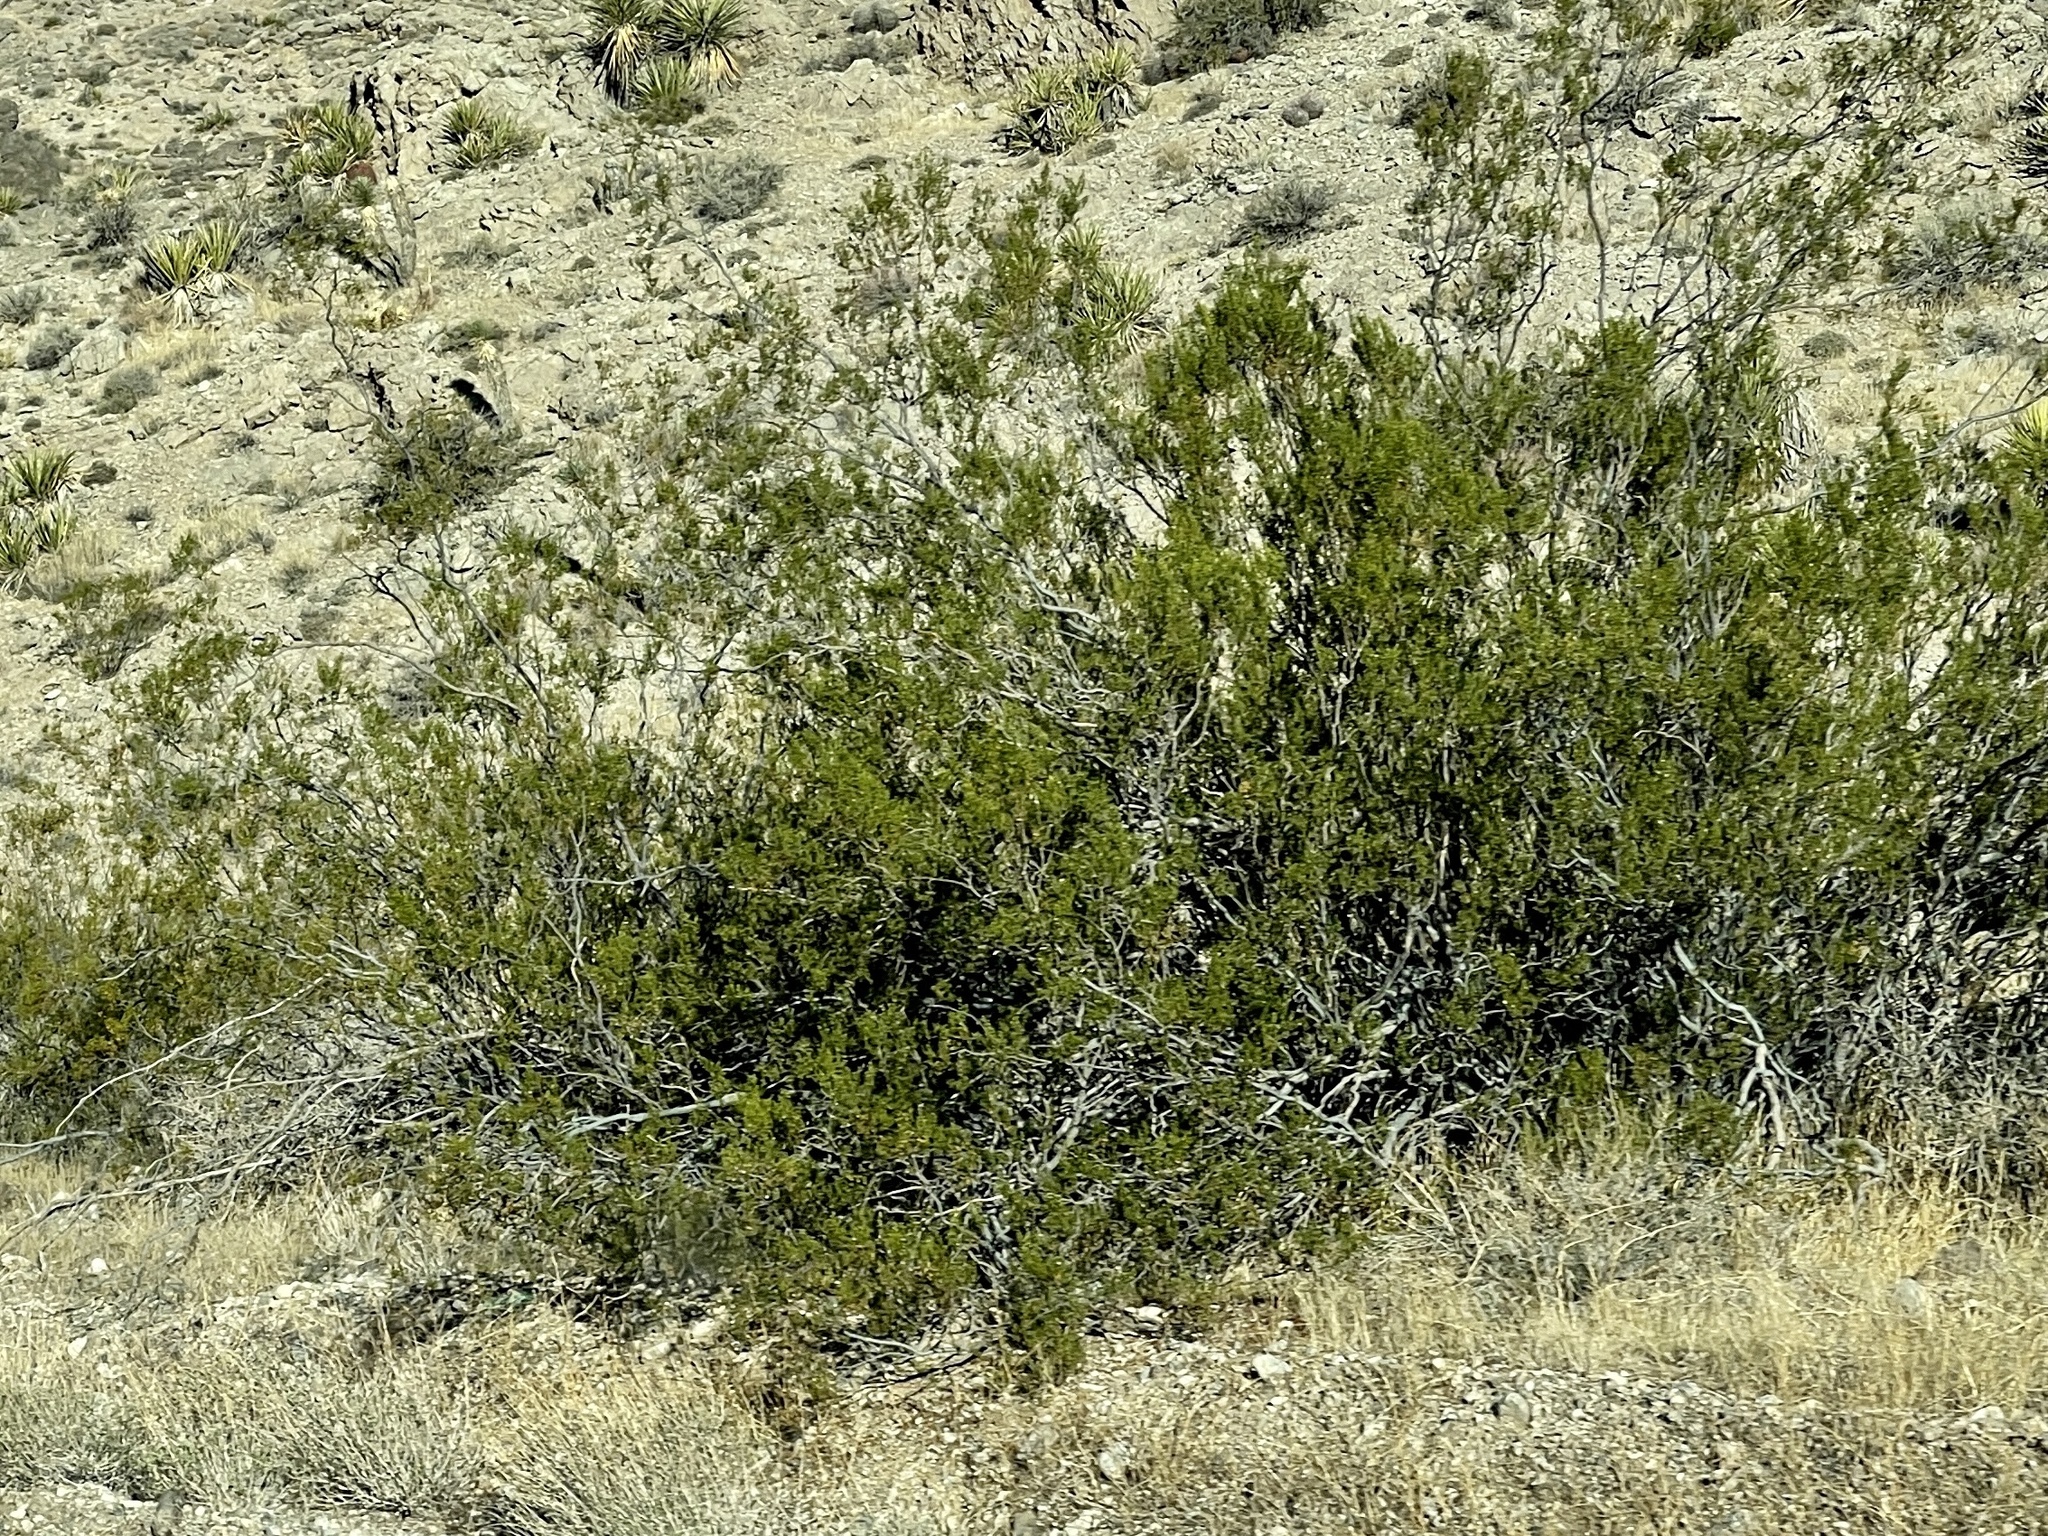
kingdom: Plantae
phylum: Tracheophyta
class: Magnoliopsida
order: Zygophyllales
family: Zygophyllaceae
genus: Larrea
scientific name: Larrea tridentata
